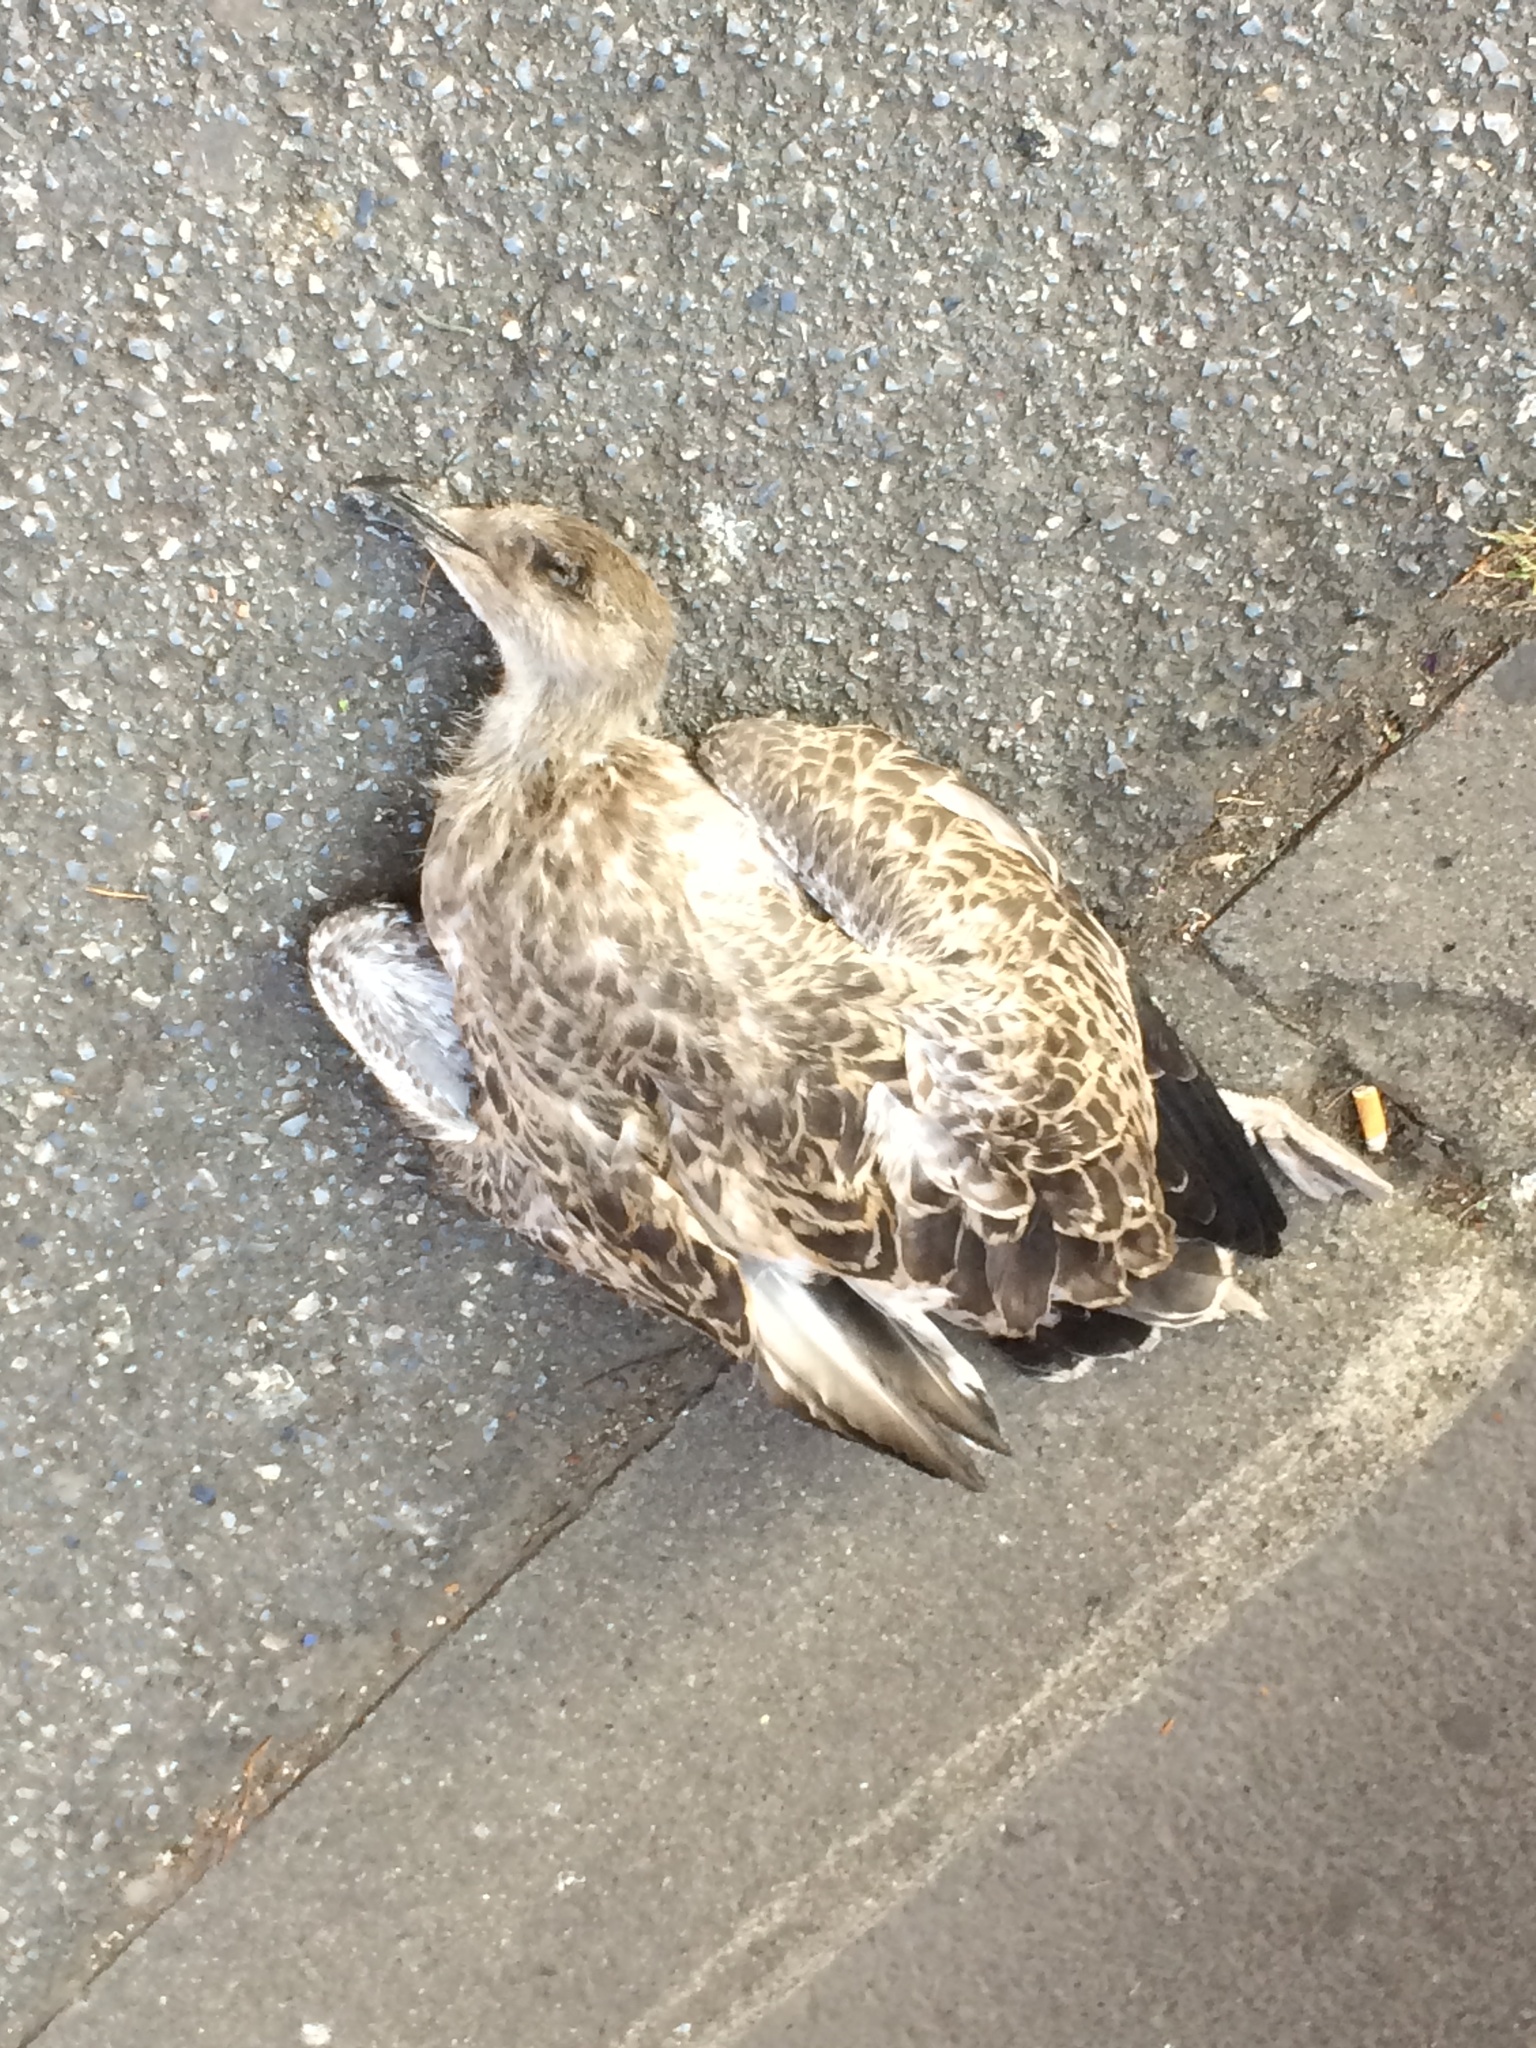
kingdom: Animalia
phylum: Chordata
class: Aves
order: Charadriiformes
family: Laridae
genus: Larus
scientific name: Larus michahellis
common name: Yellow-legged gull
